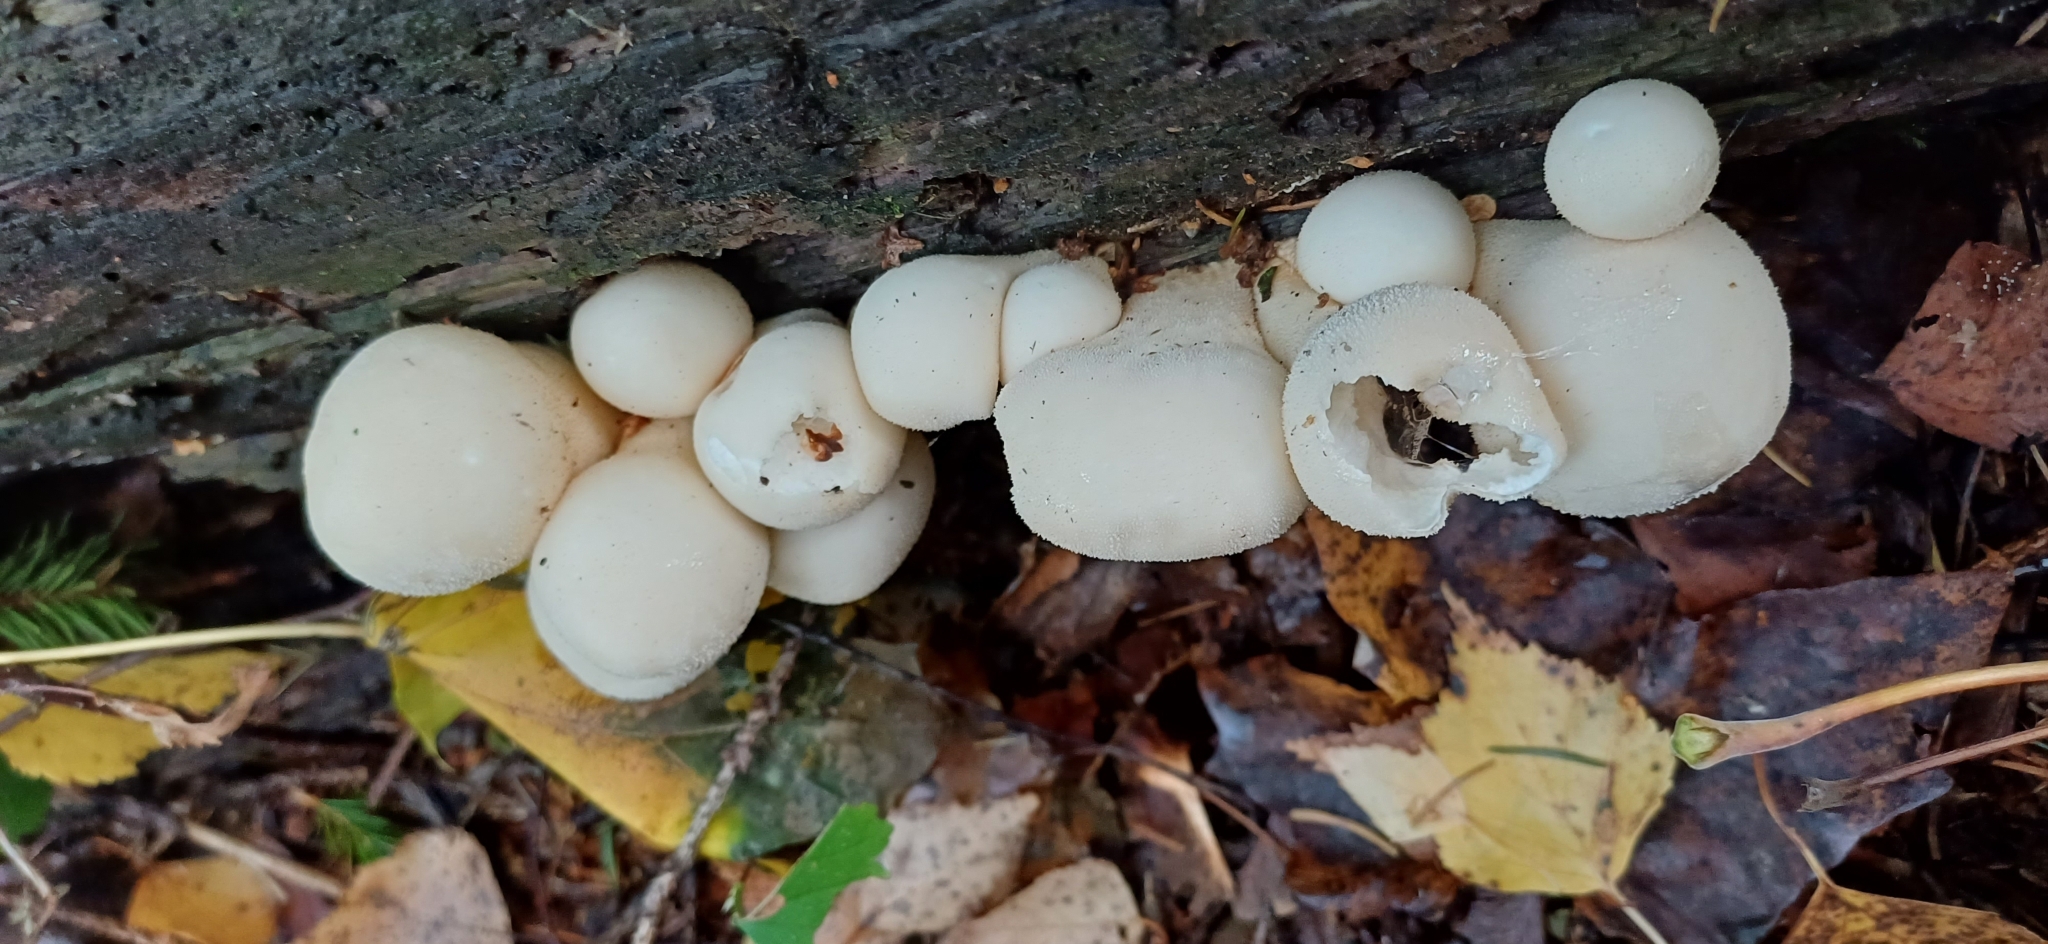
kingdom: Fungi
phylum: Basidiomycota
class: Agaricomycetes
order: Agaricales
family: Lycoperdaceae
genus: Apioperdon
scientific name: Apioperdon pyriforme
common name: Pear-shaped puffball
